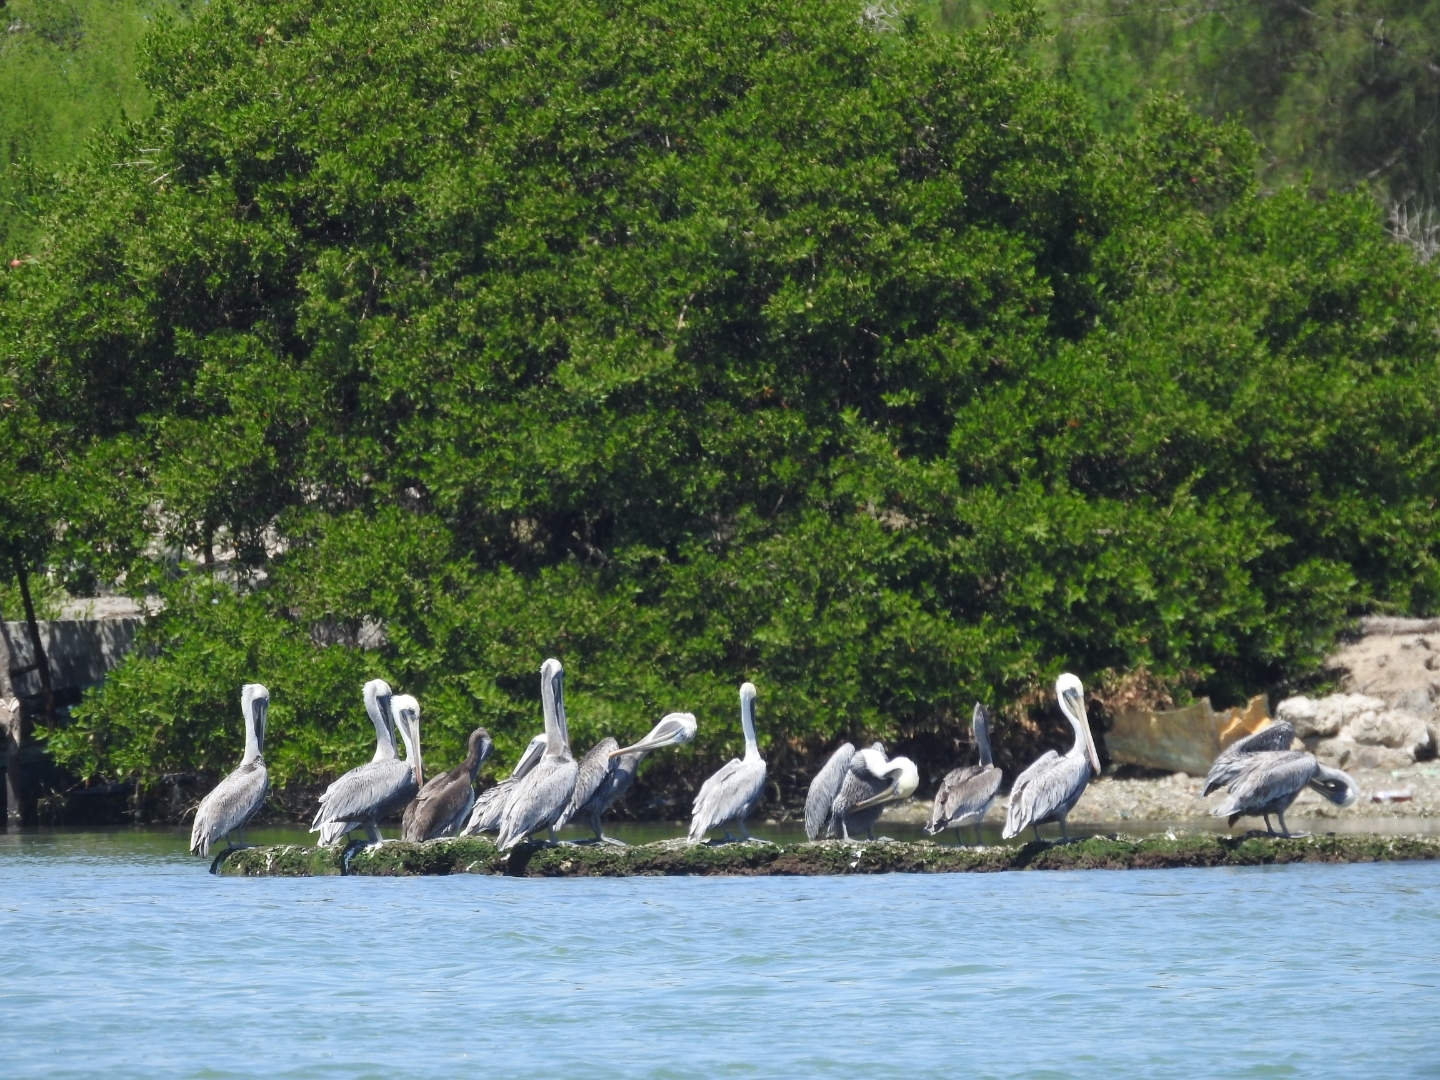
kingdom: Animalia
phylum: Chordata
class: Aves
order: Pelecaniformes
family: Pelecanidae
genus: Pelecanus
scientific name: Pelecanus occidentalis
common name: Brown pelican
